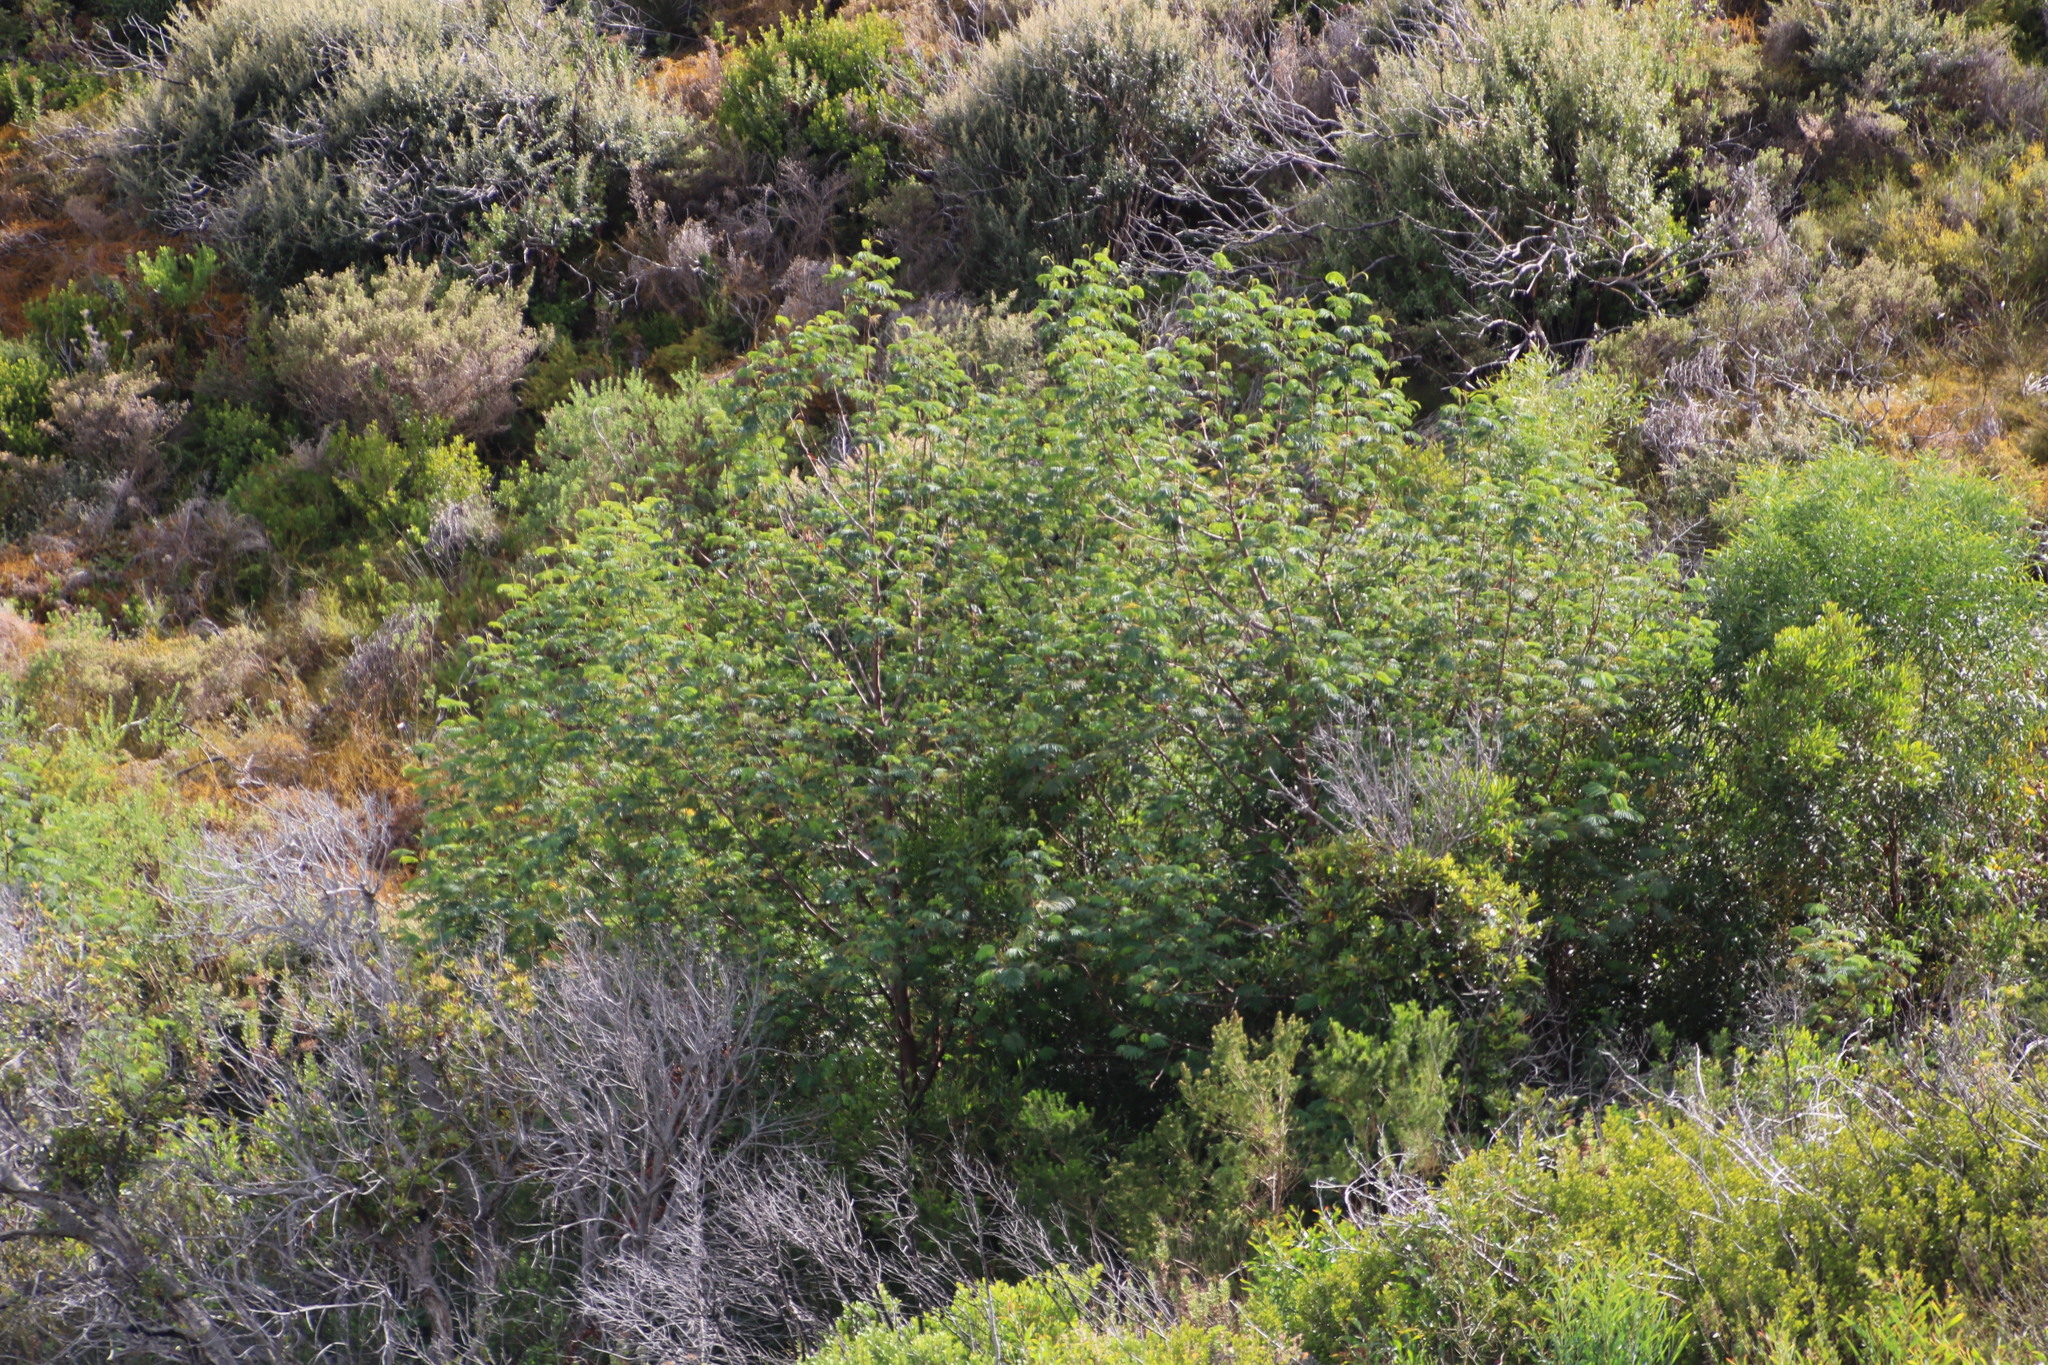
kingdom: Plantae
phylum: Tracheophyta
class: Magnoliopsida
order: Fabales
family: Fabaceae
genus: Paraserianthes
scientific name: Paraserianthes lophantha
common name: Plume albizia
